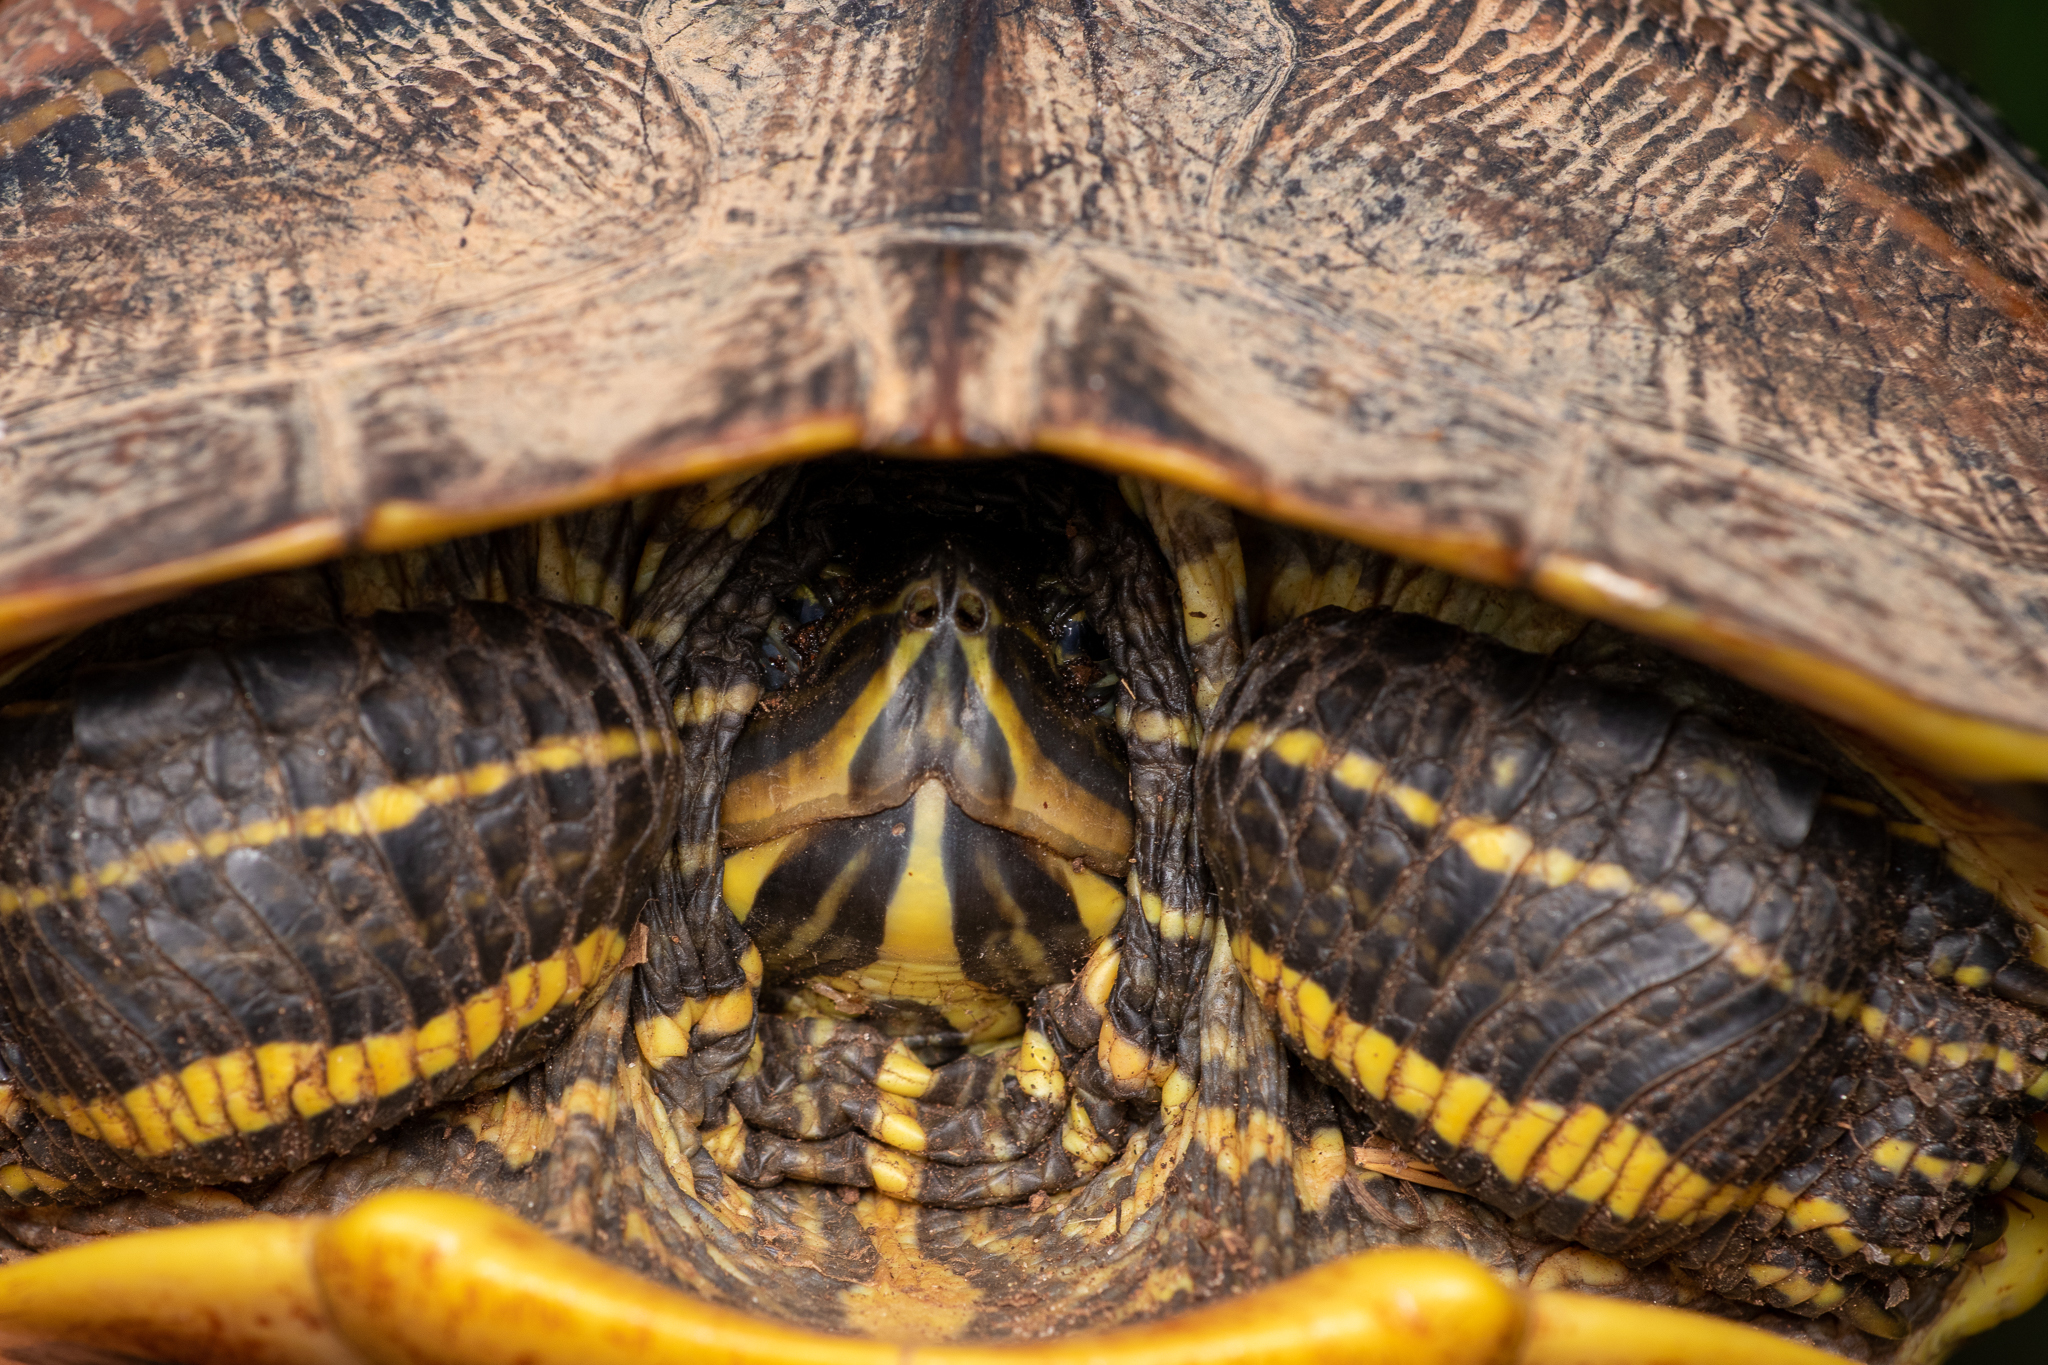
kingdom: Animalia
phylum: Chordata
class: Testudines
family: Emydidae
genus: Trachemys
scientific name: Trachemys scripta
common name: Slider
